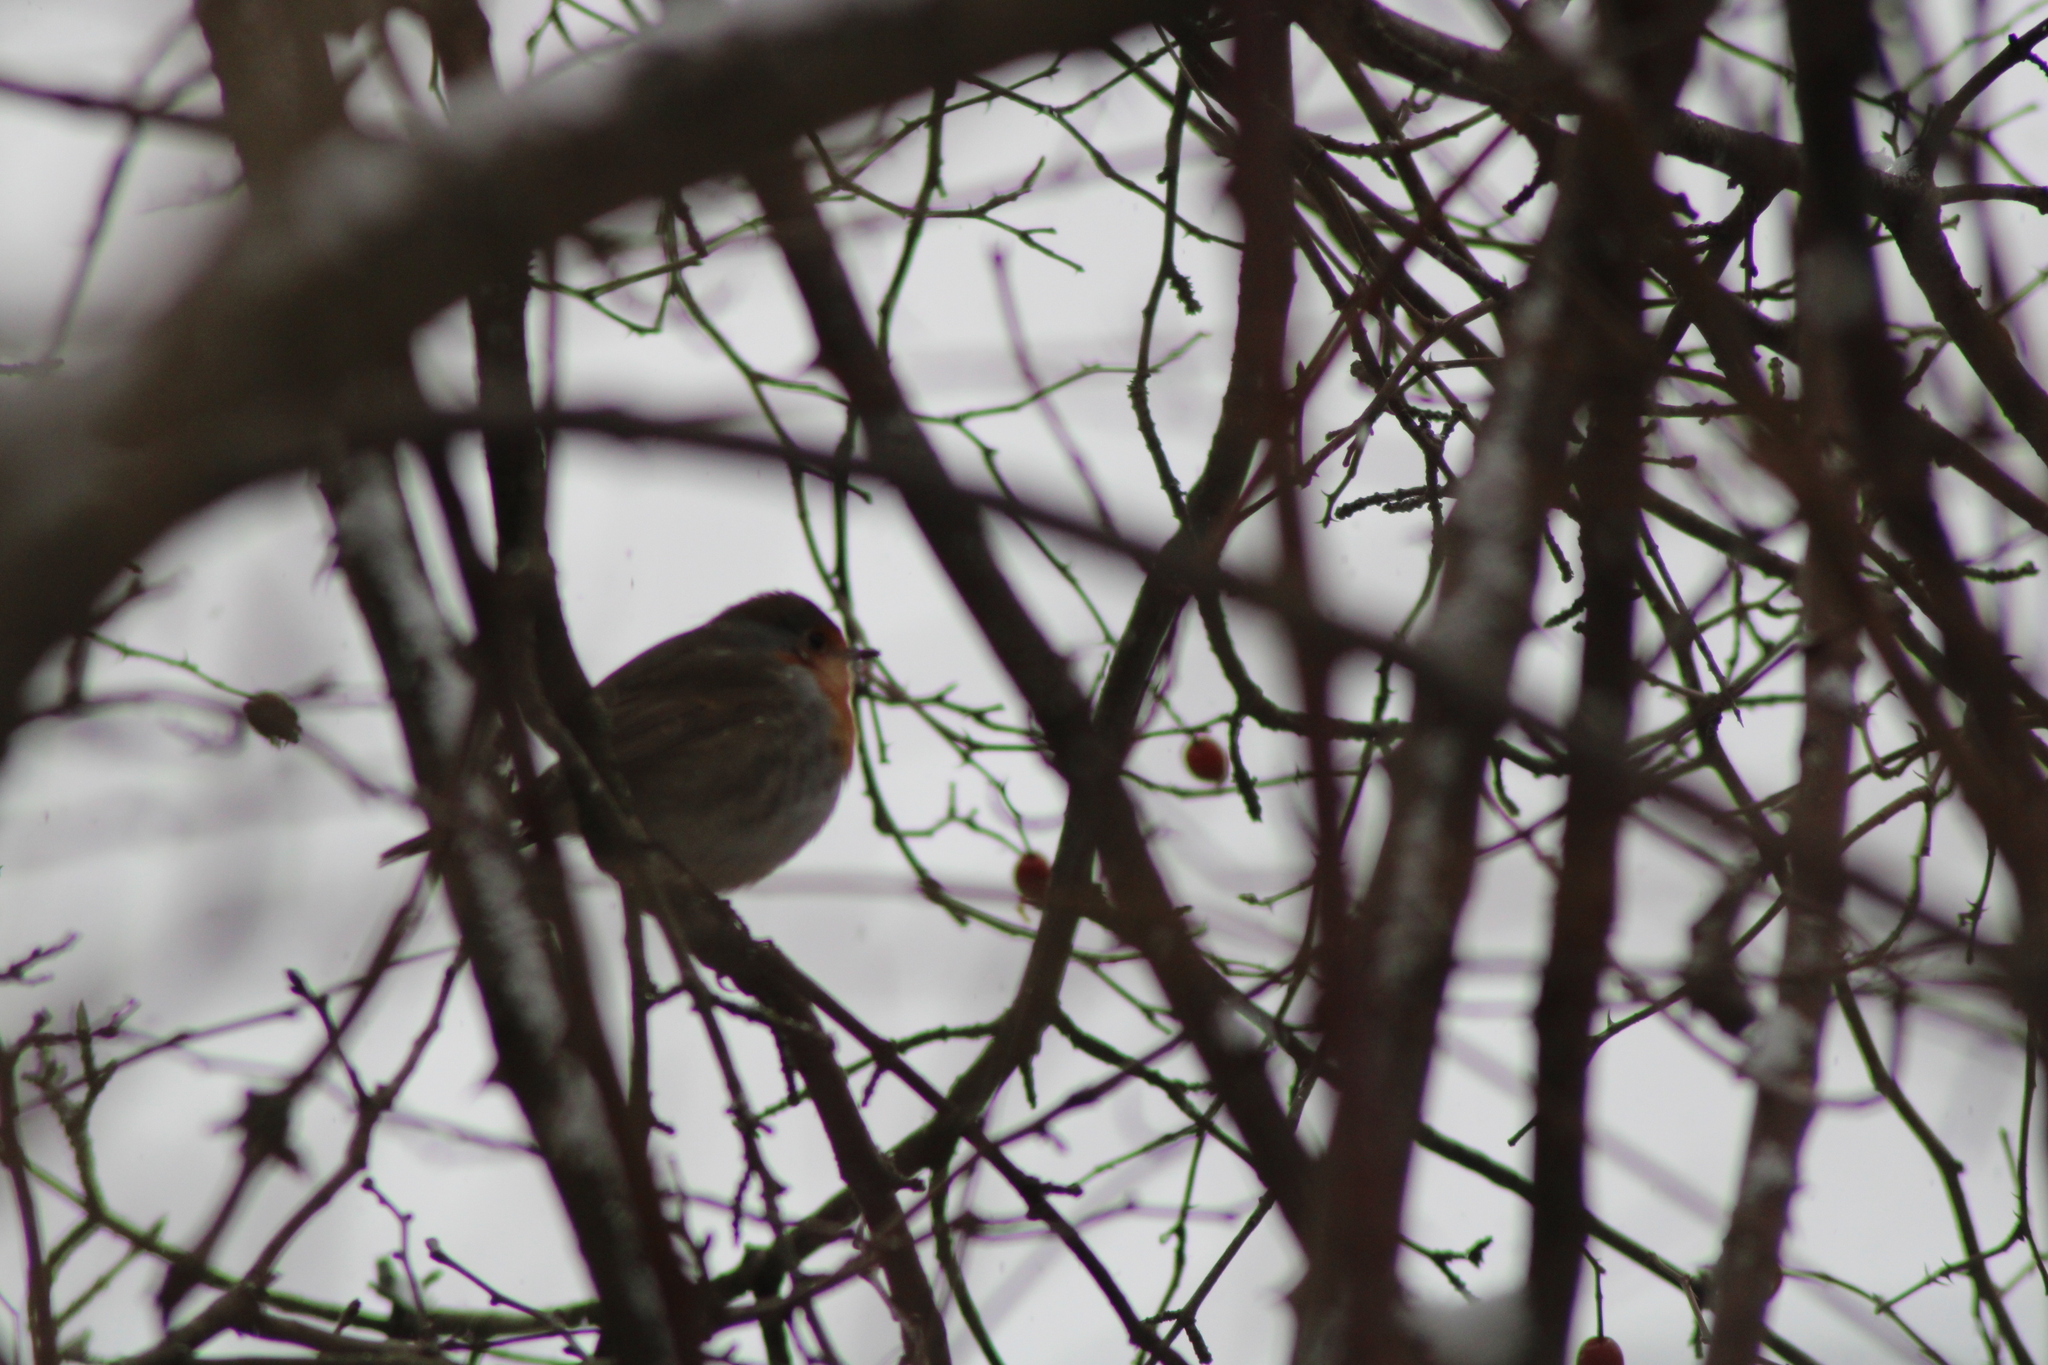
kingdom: Animalia
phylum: Chordata
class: Aves
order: Passeriformes
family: Muscicapidae
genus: Erithacus
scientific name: Erithacus rubecula
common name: European robin
